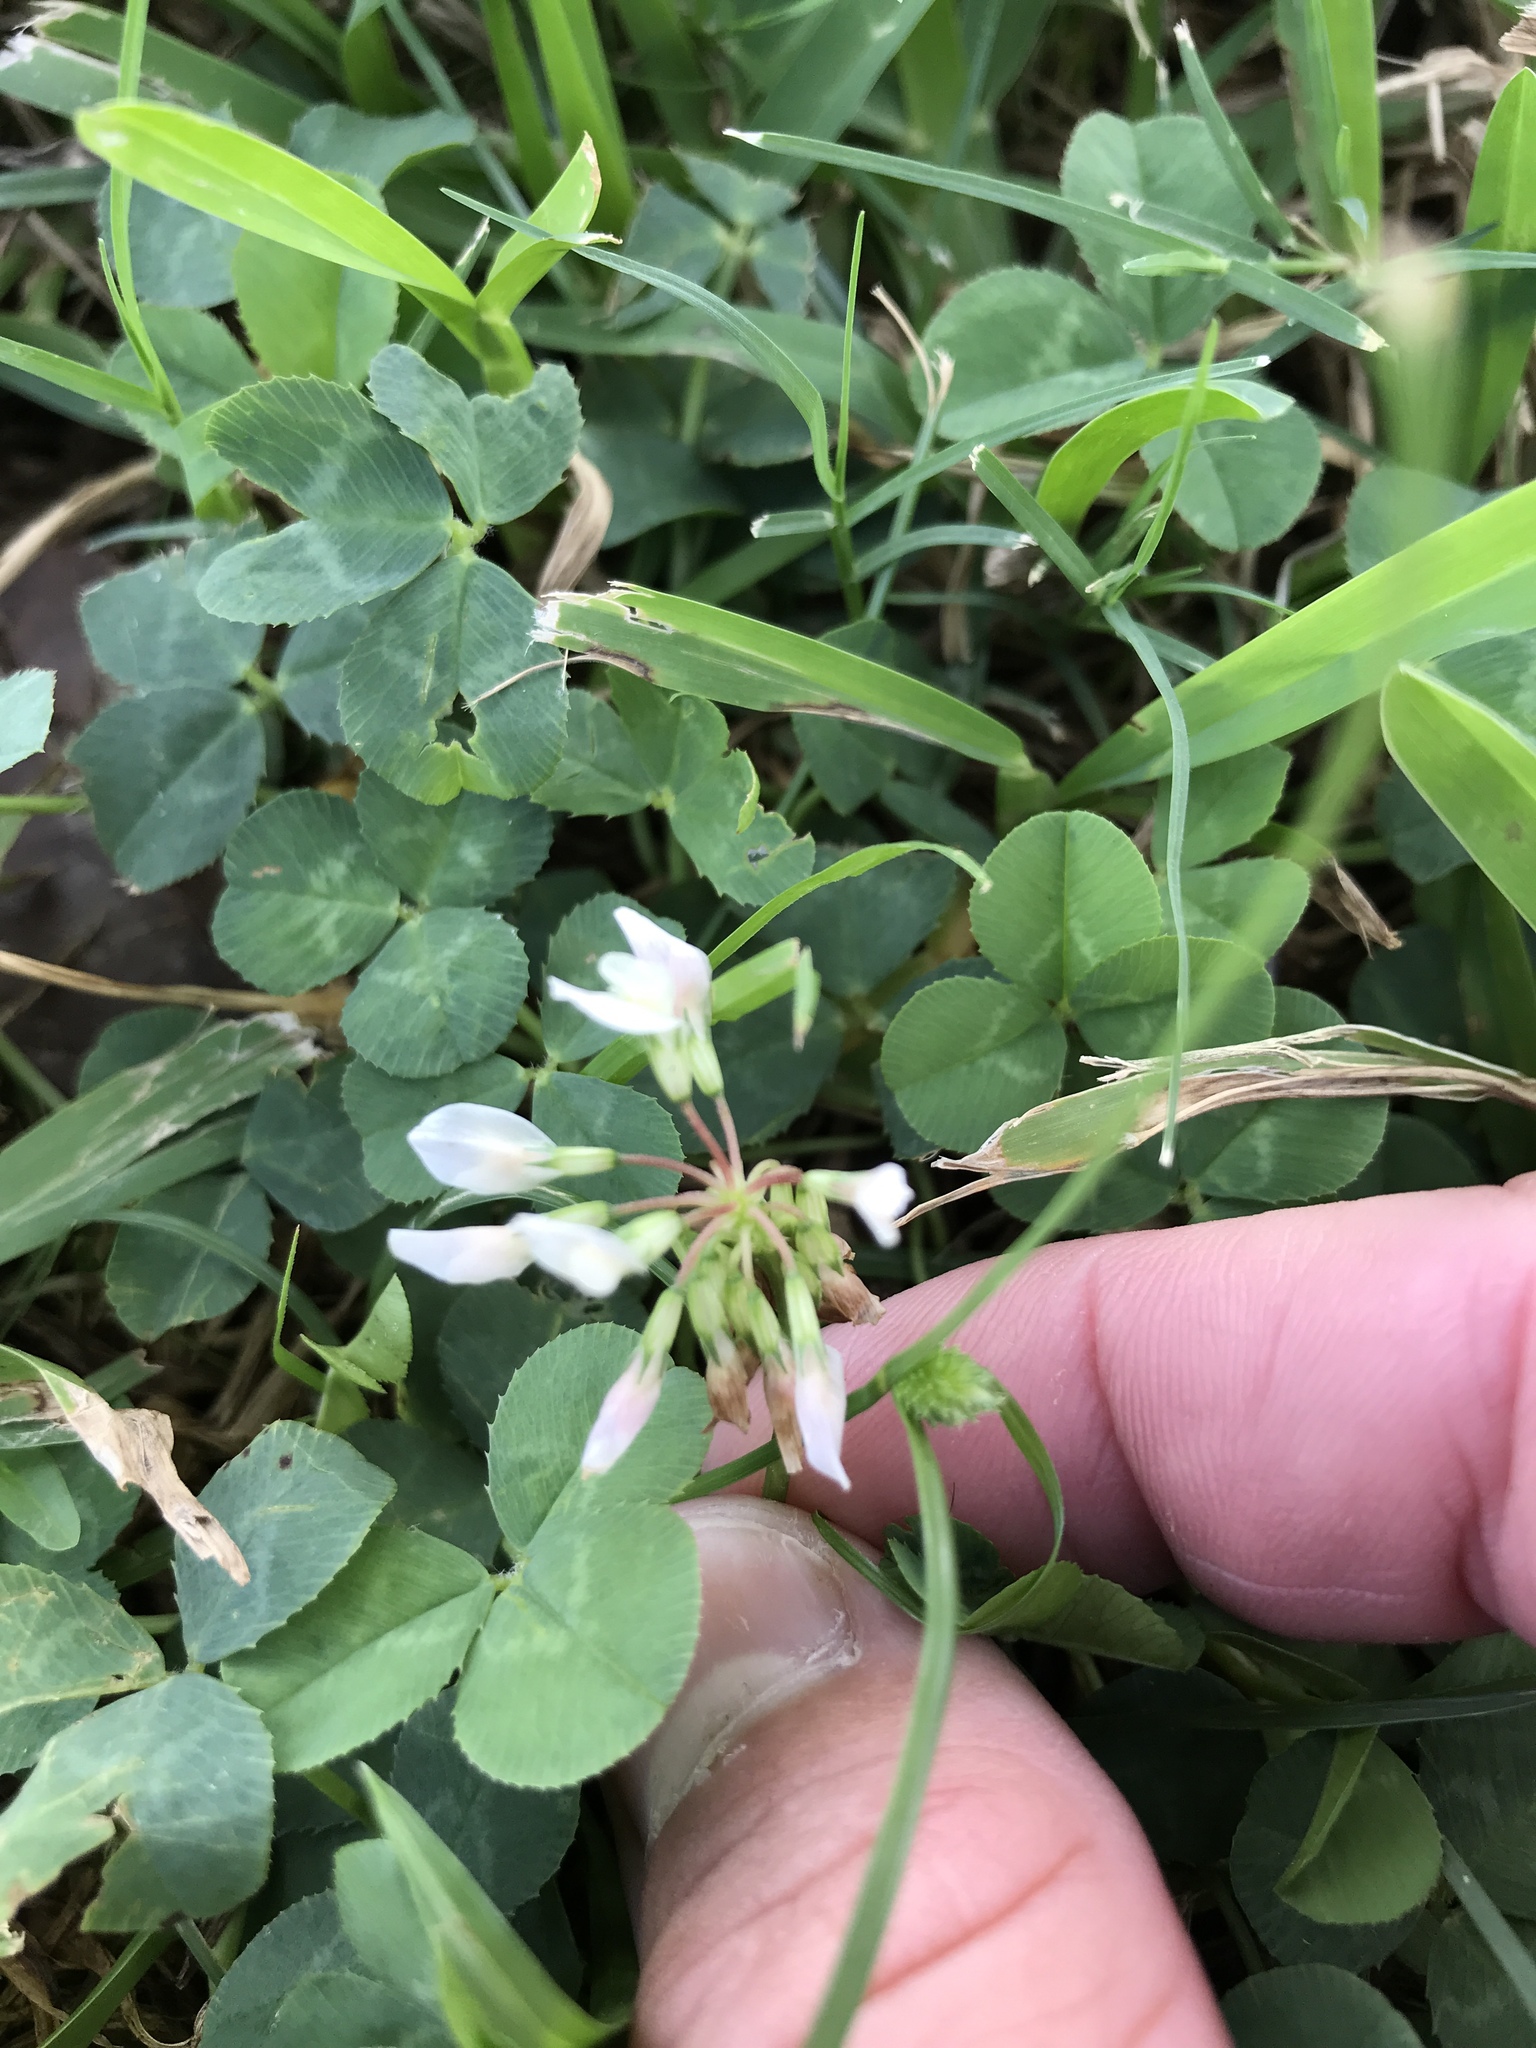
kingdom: Plantae
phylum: Tracheophyta
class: Magnoliopsida
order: Fabales
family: Fabaceae
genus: Trifolium
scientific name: Trifolium repens
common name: White clover
